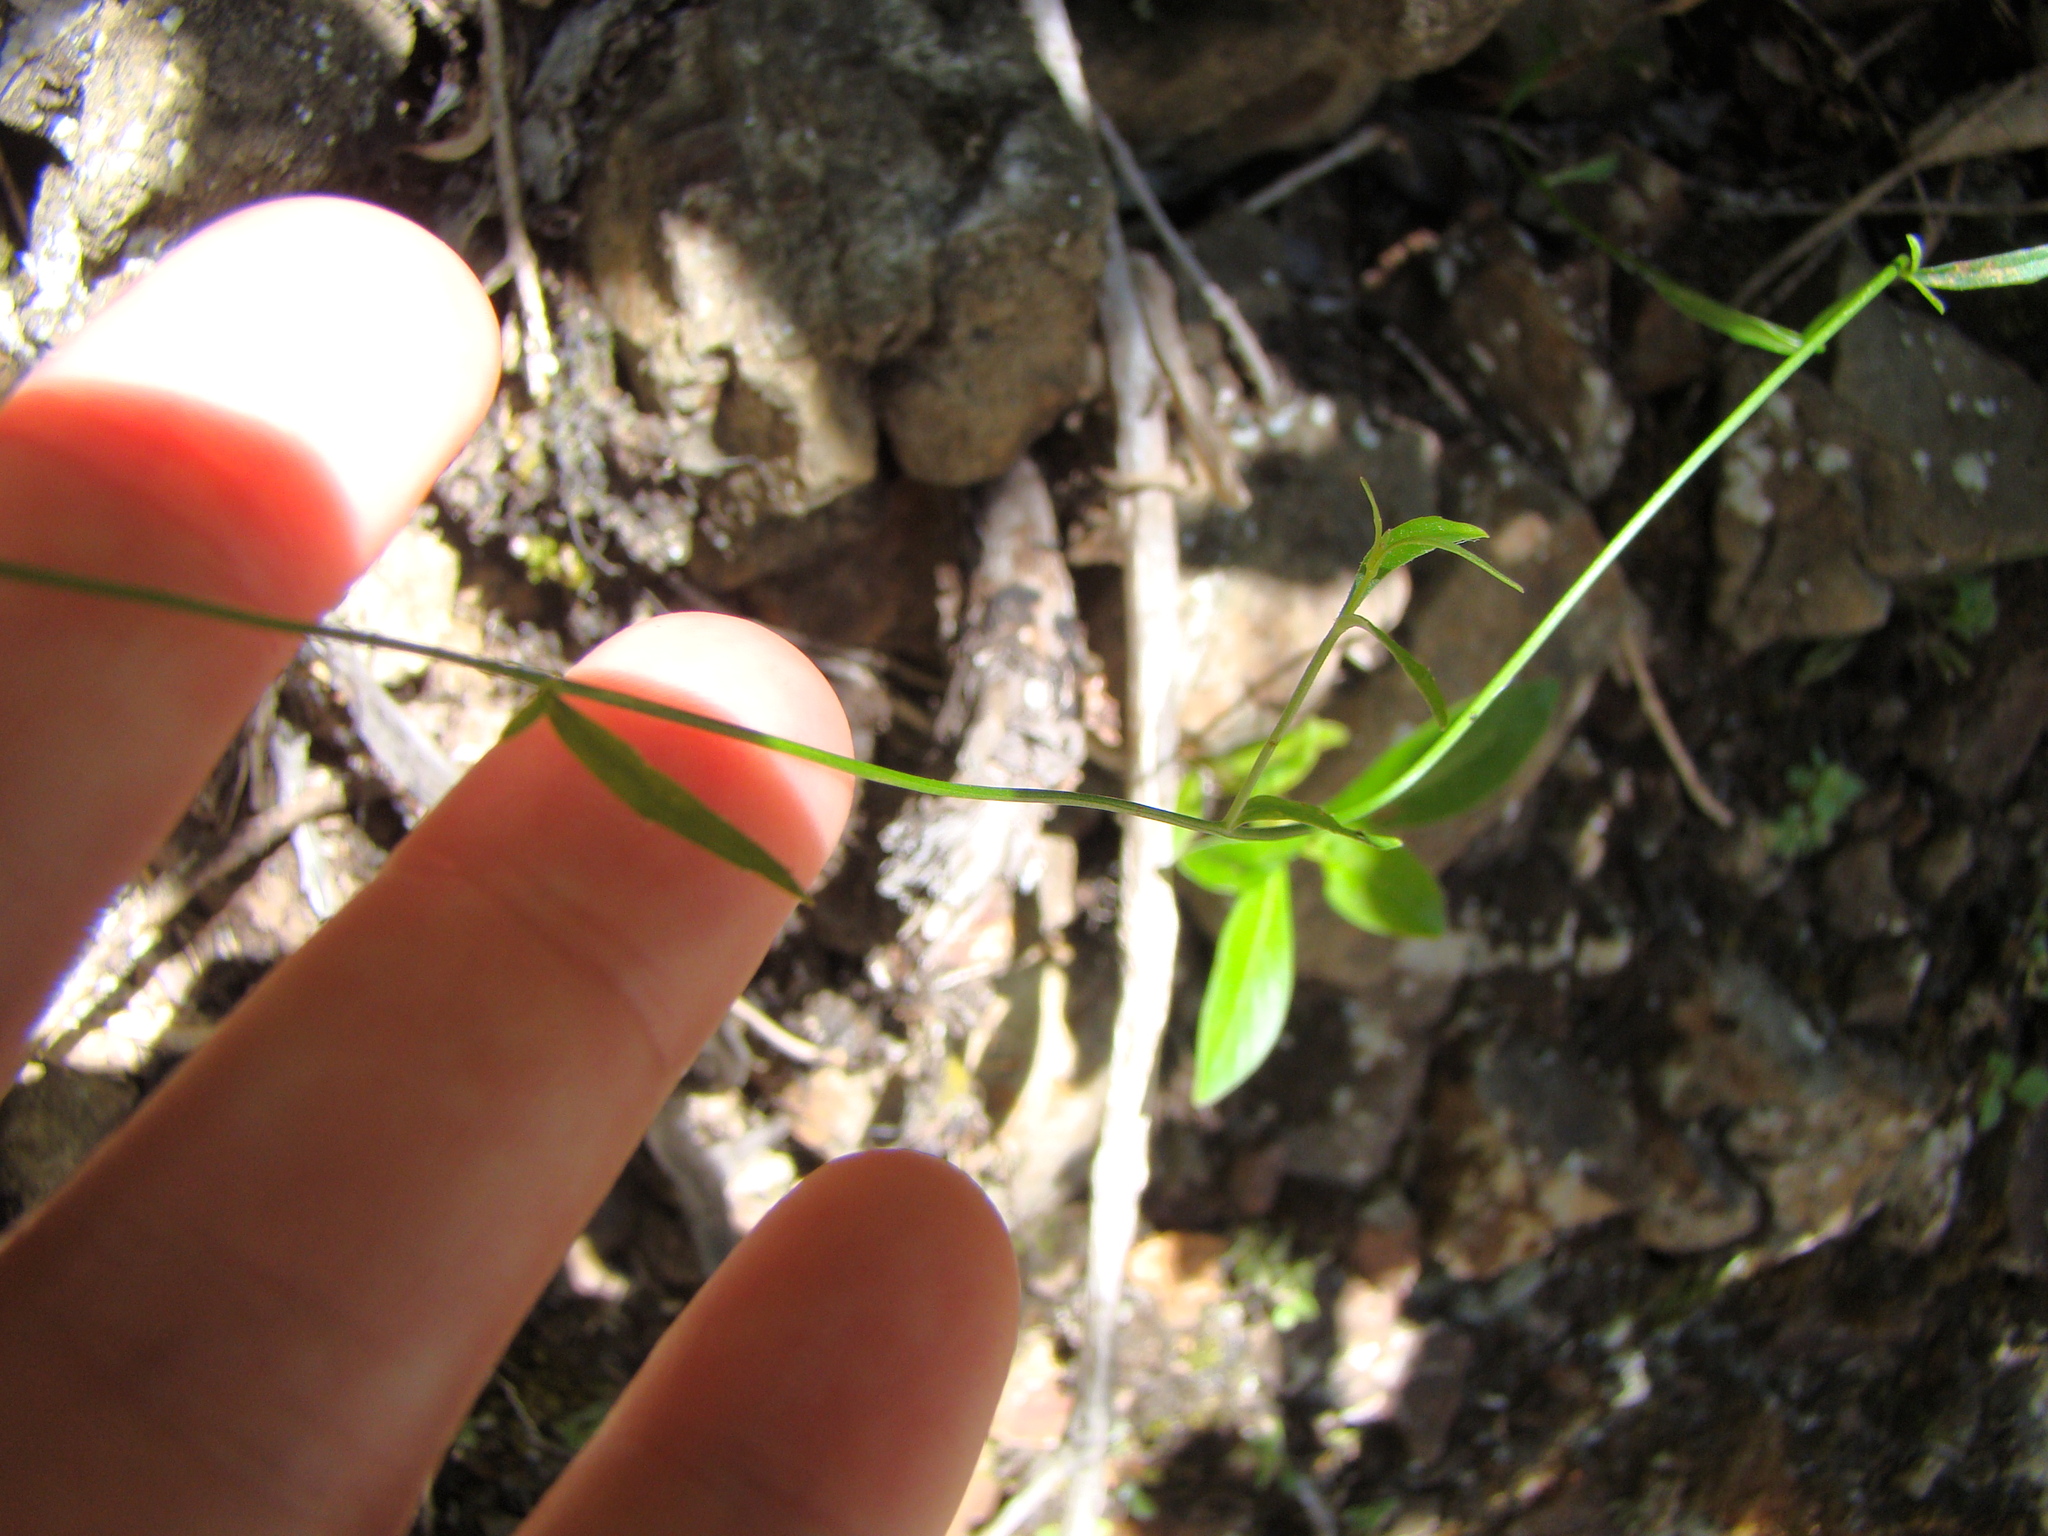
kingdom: Plantae
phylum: Tracheophyta
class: Magnoliopsida
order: Asterales
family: Campanulaceae
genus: Wahlenbergia
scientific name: Wahlenbergia gracilis
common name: Harebell
